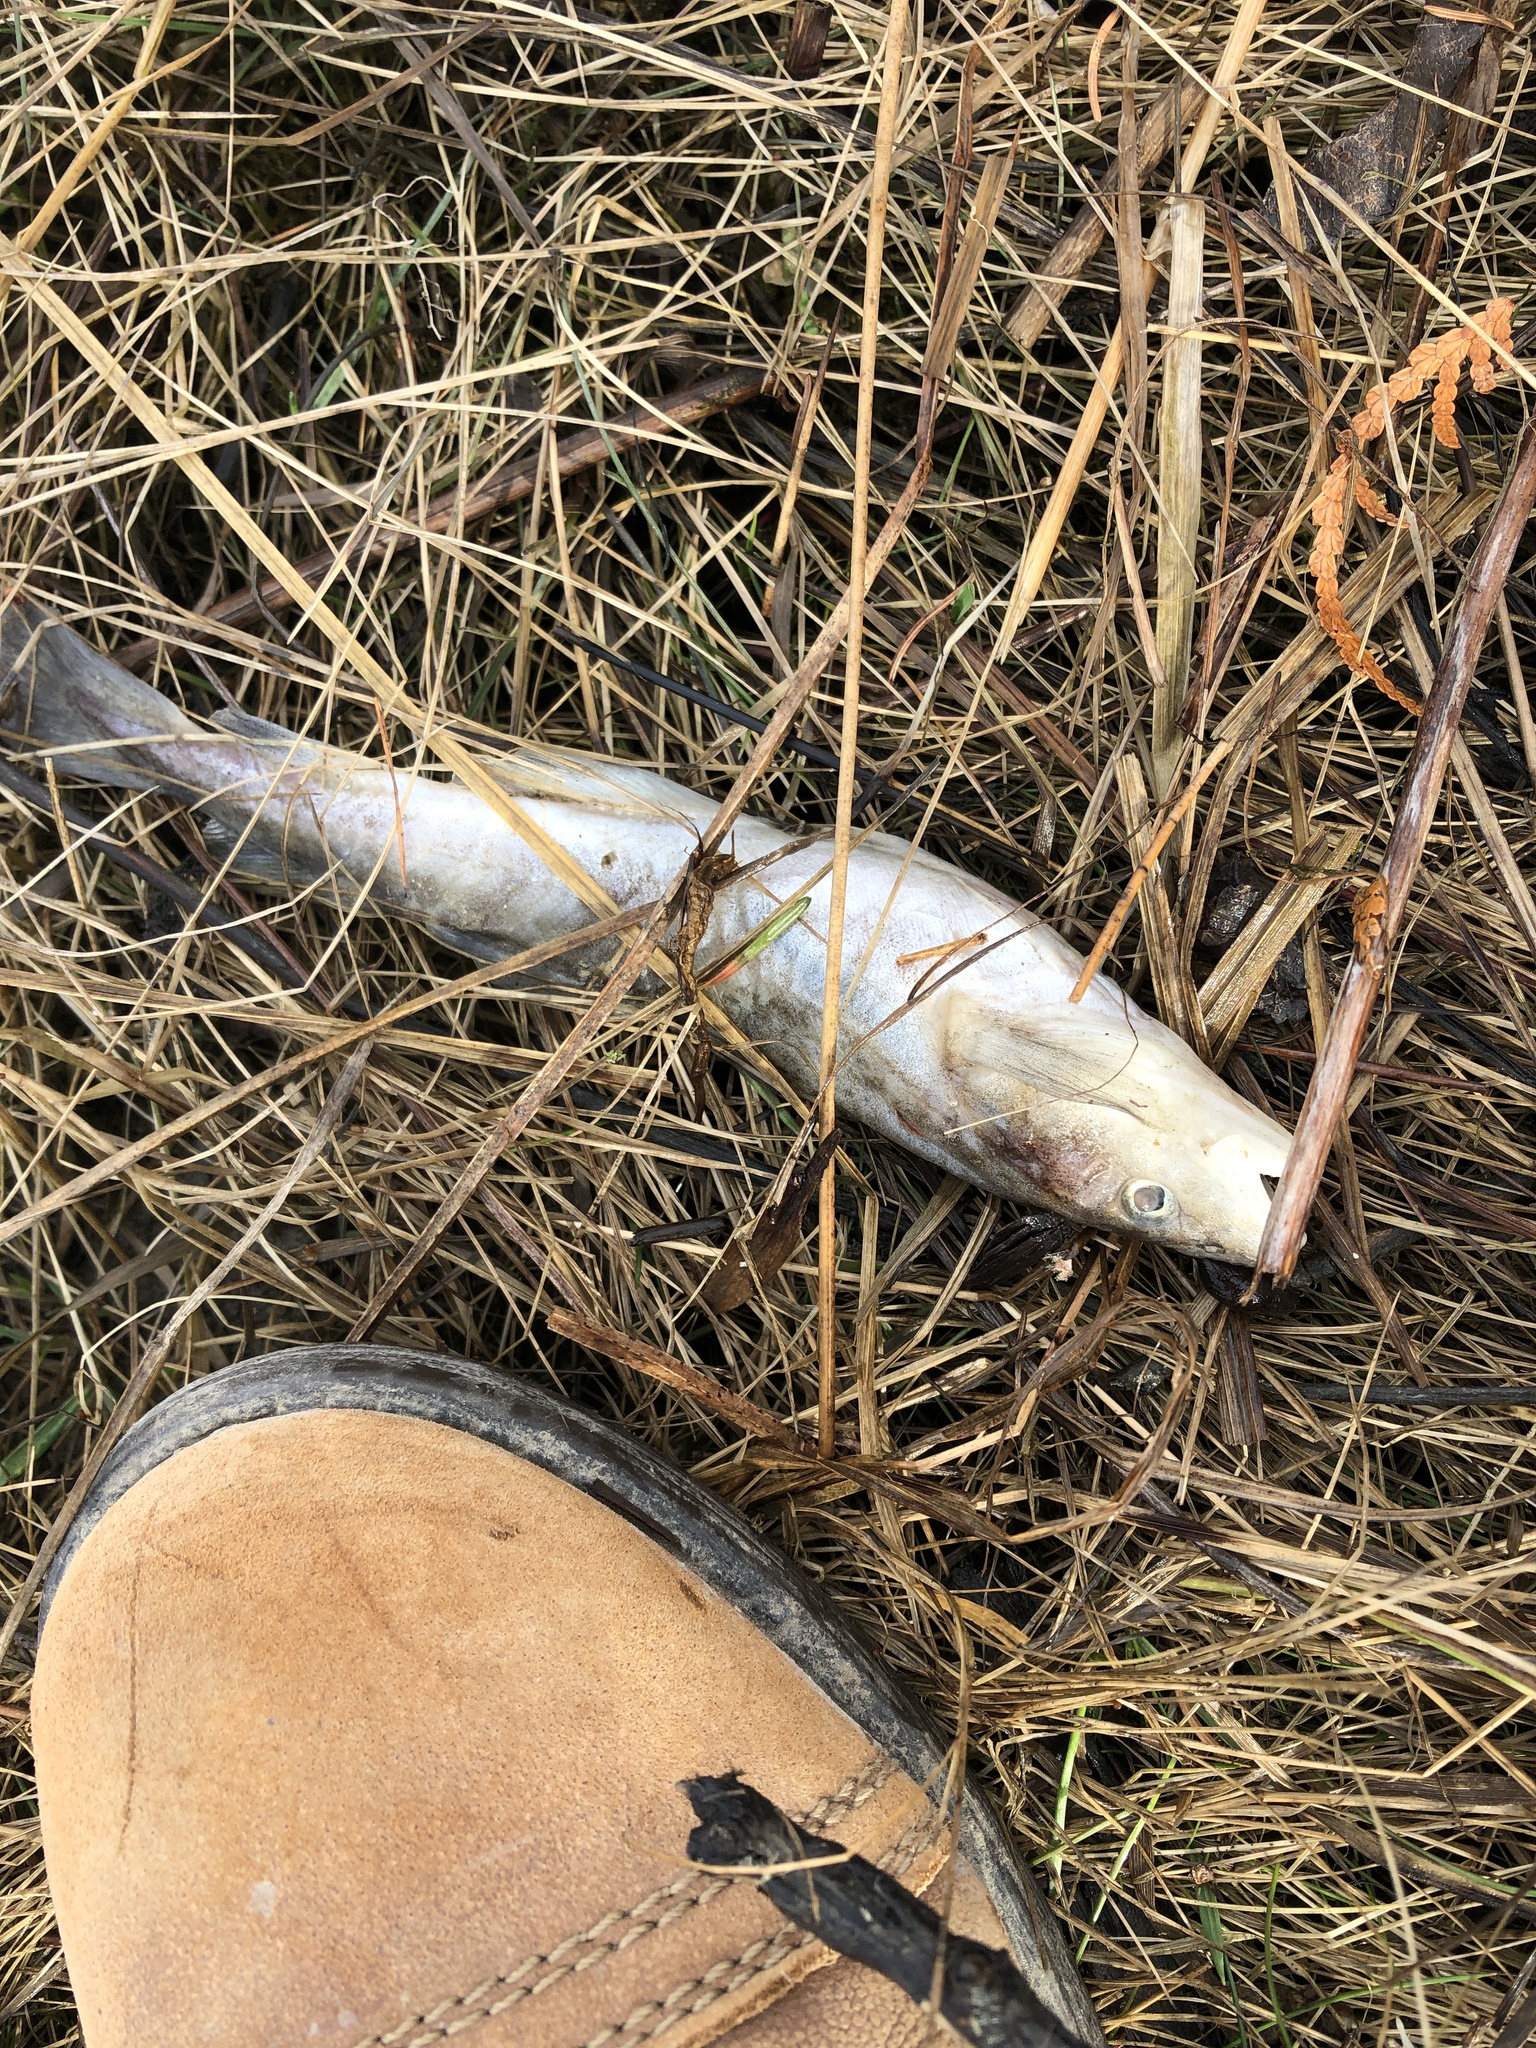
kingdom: Animalia
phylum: Chordata
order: Gadiformes
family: Gadidae
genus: Microgadus
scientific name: Microgadus tomcod
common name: Atlantic tomcod
